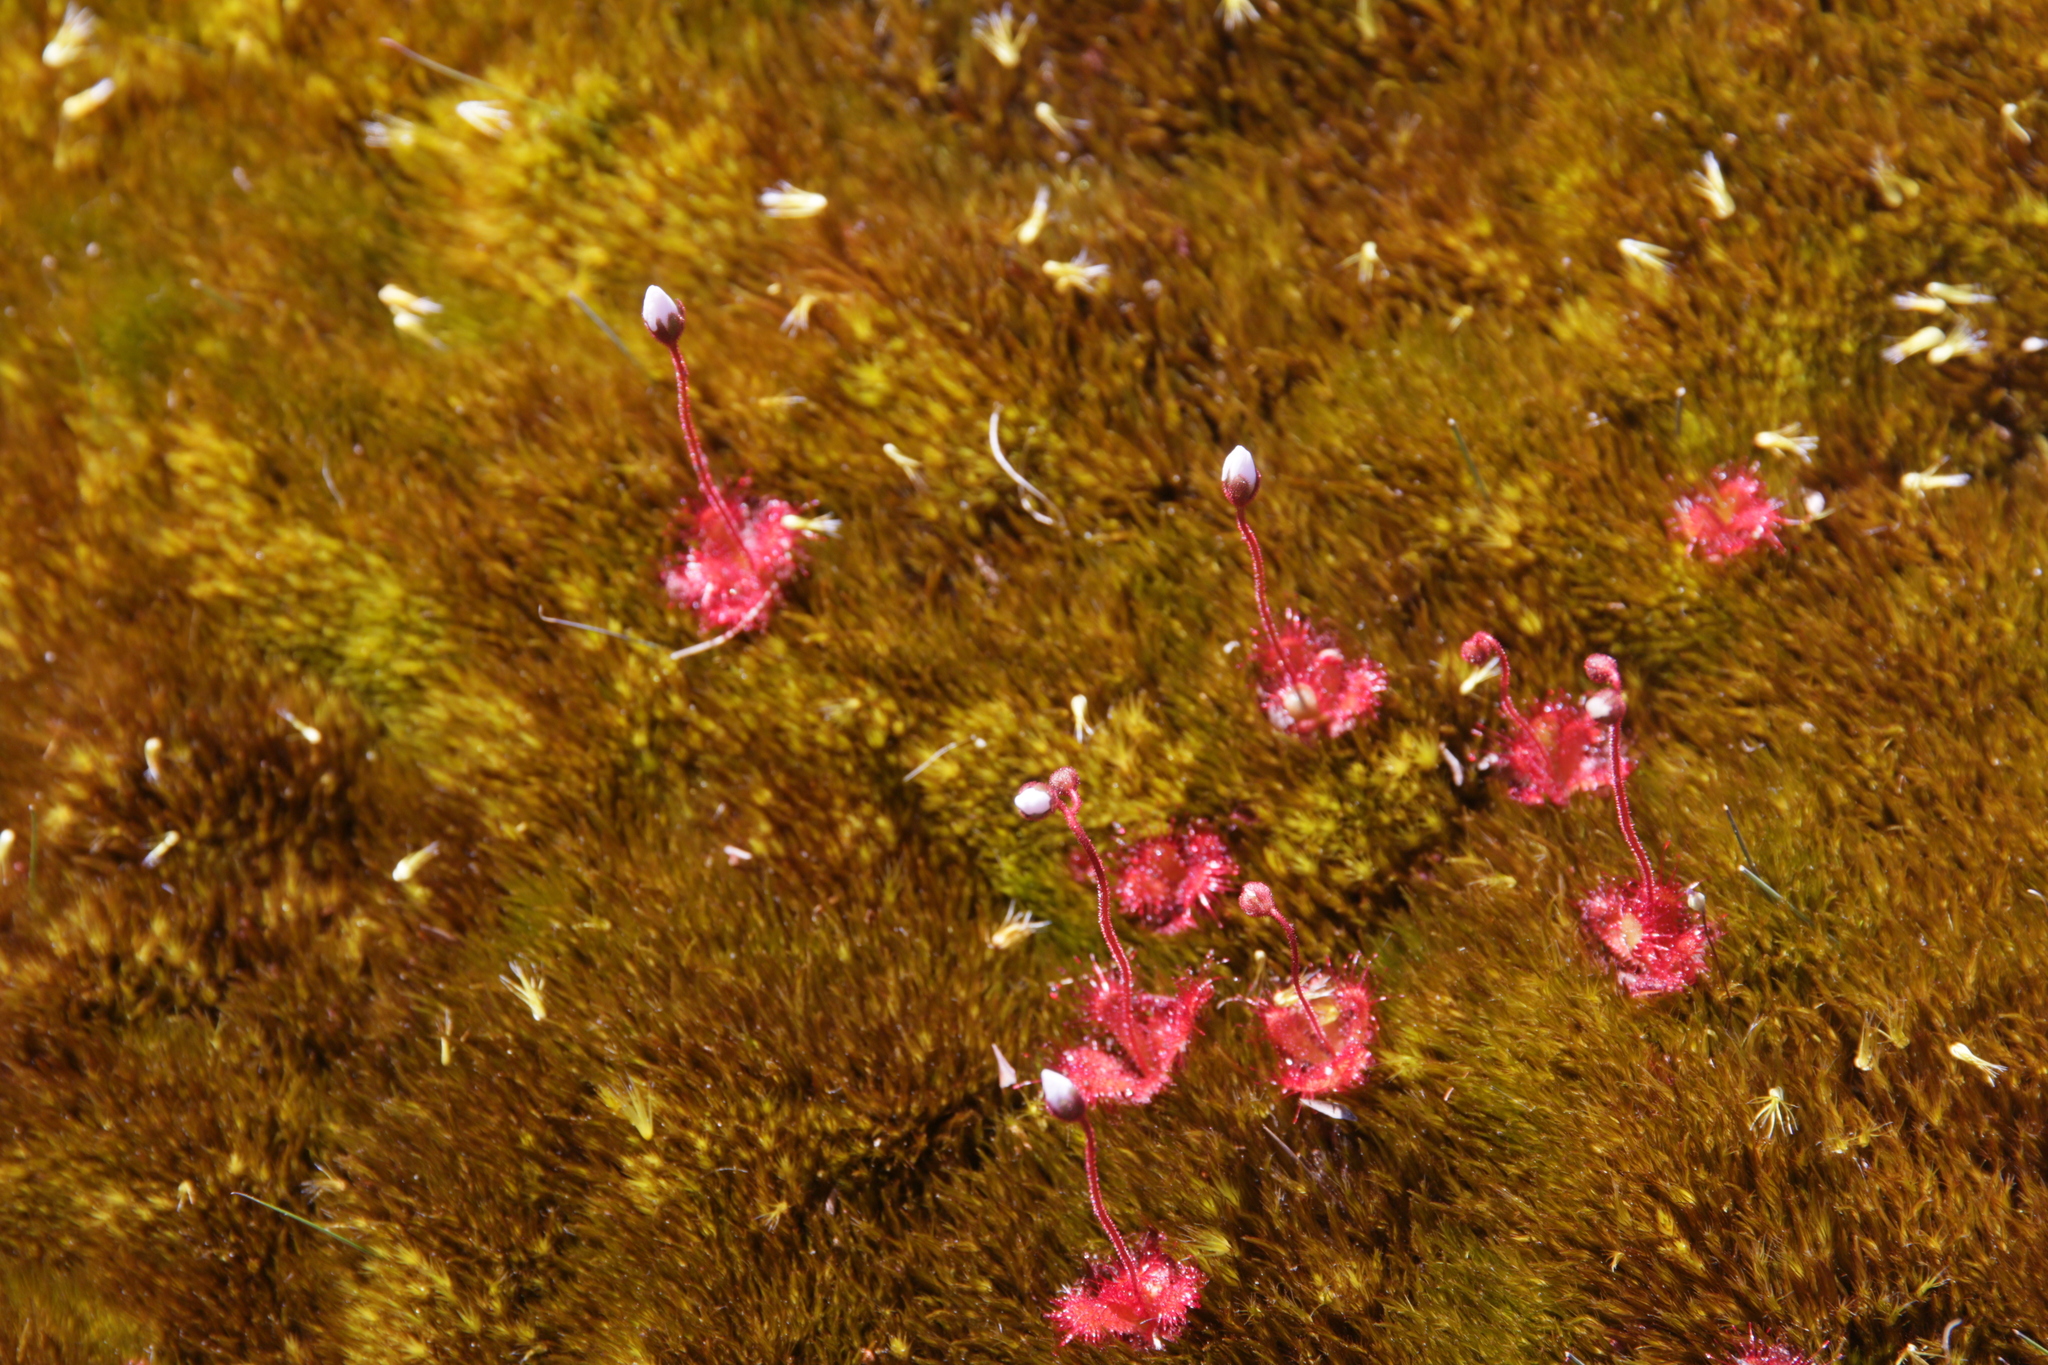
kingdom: Plantae
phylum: Tracheophyta
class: Magnoliopsida
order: Caryophyllales
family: Droseraceae
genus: Drosera
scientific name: Drosera trinervia
